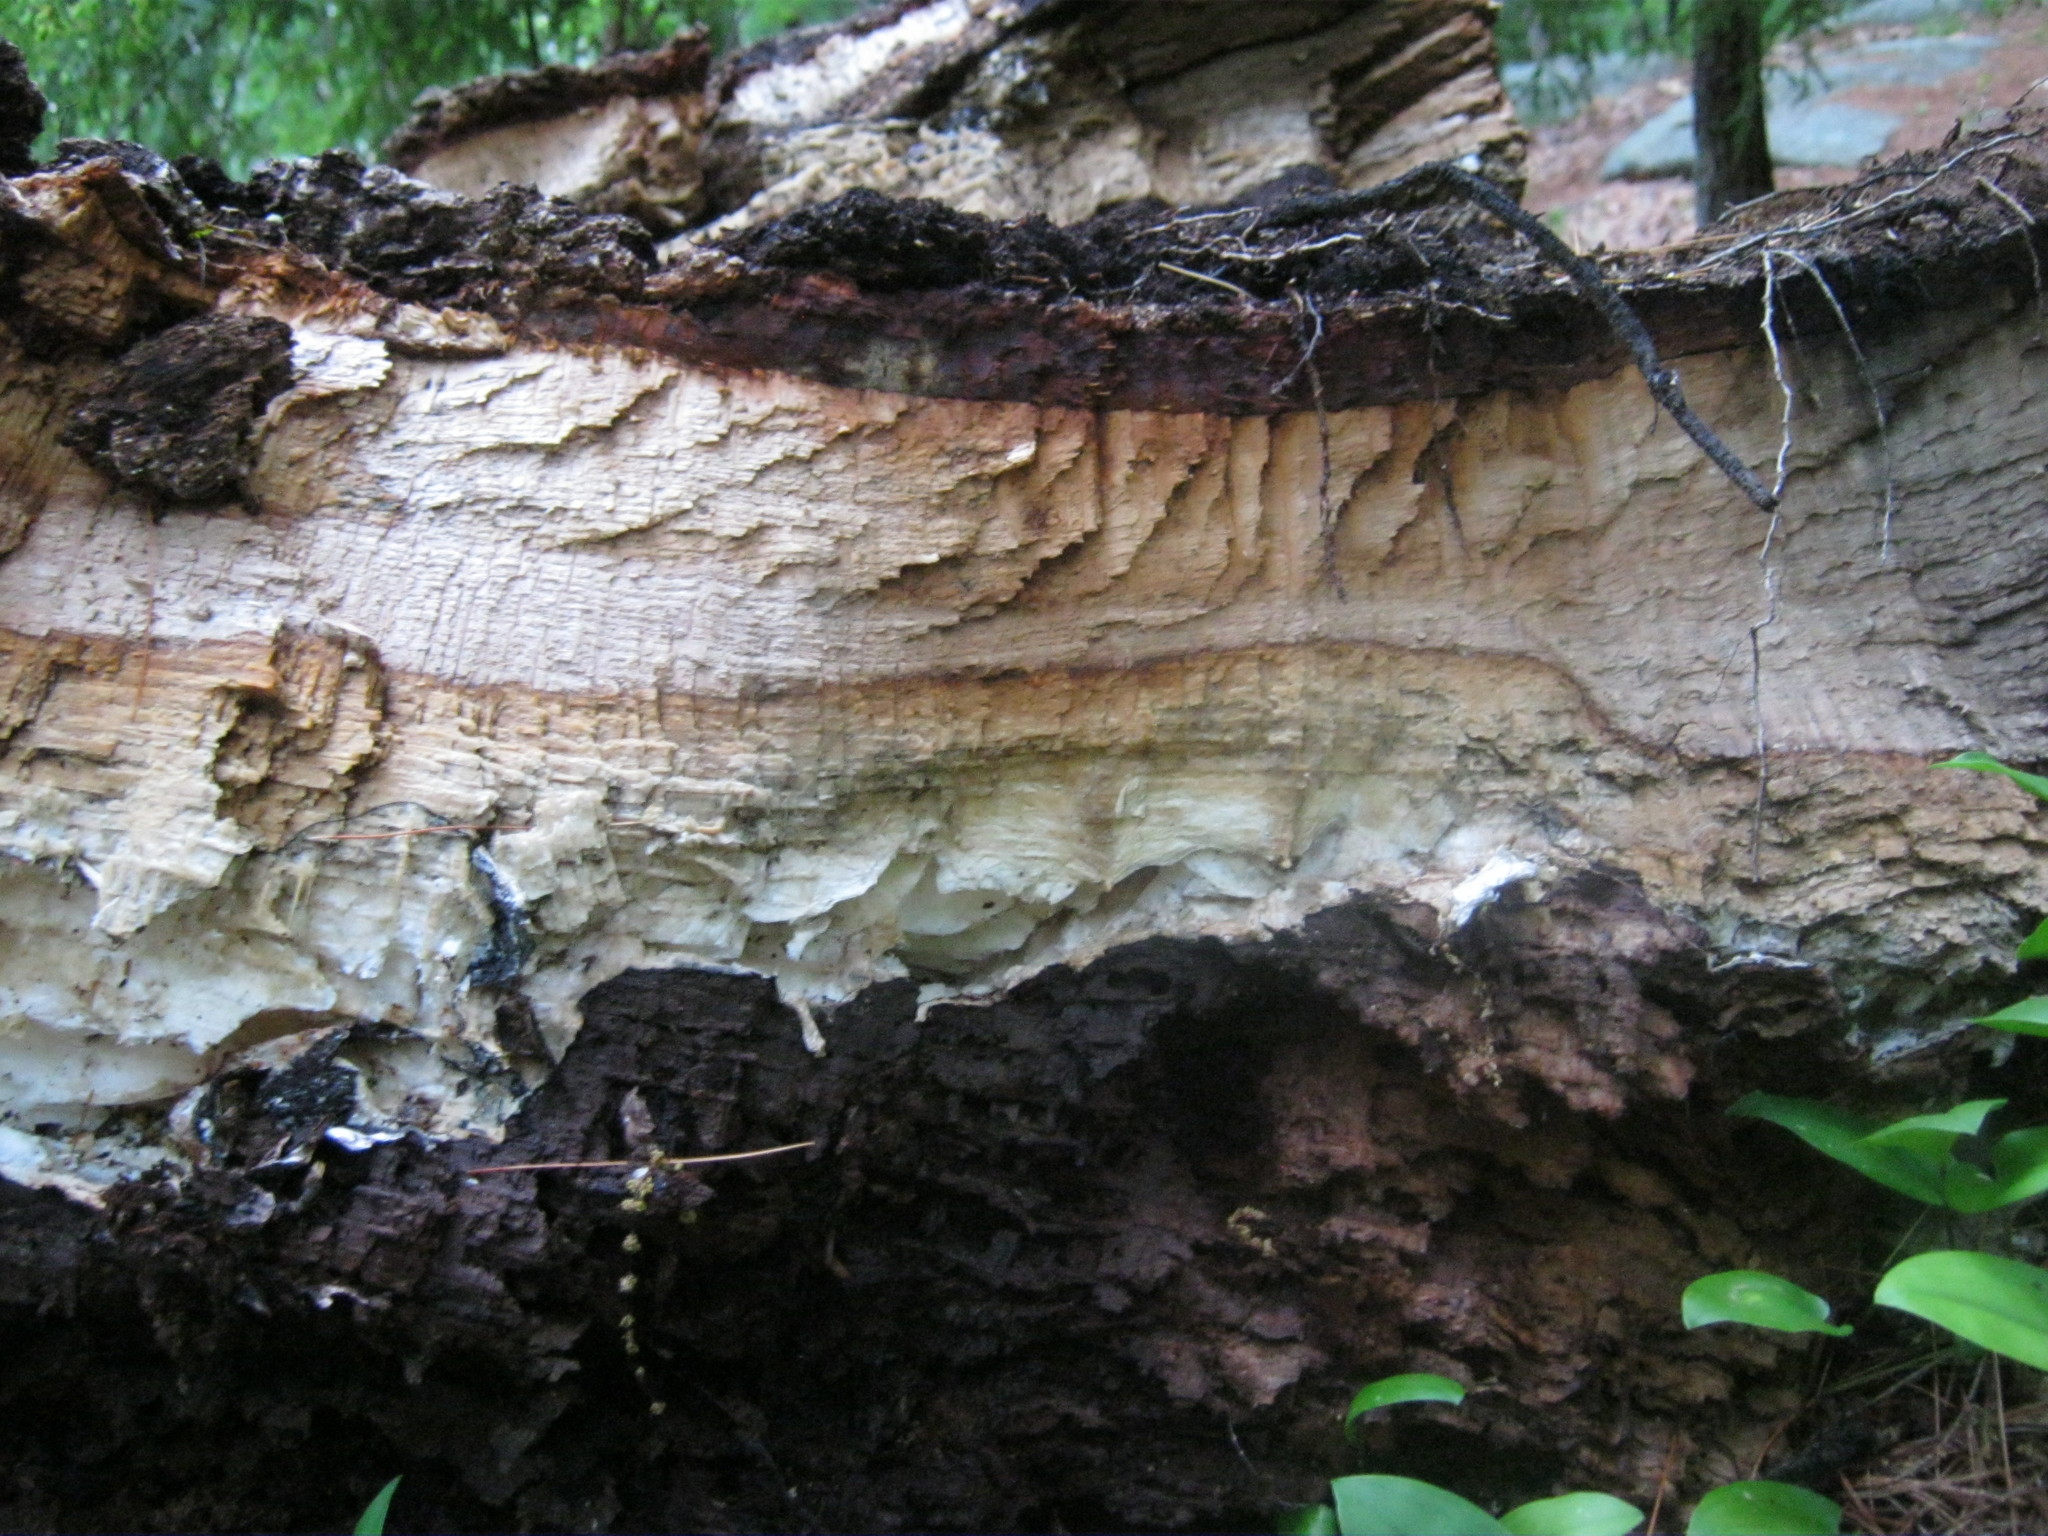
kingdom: Fungi
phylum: Ascomycota
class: Leotiomycetes
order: Phacidiales
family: Phacidiaceae
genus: Bulgaria
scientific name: Bulgaria inquinans
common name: Black bulgar
